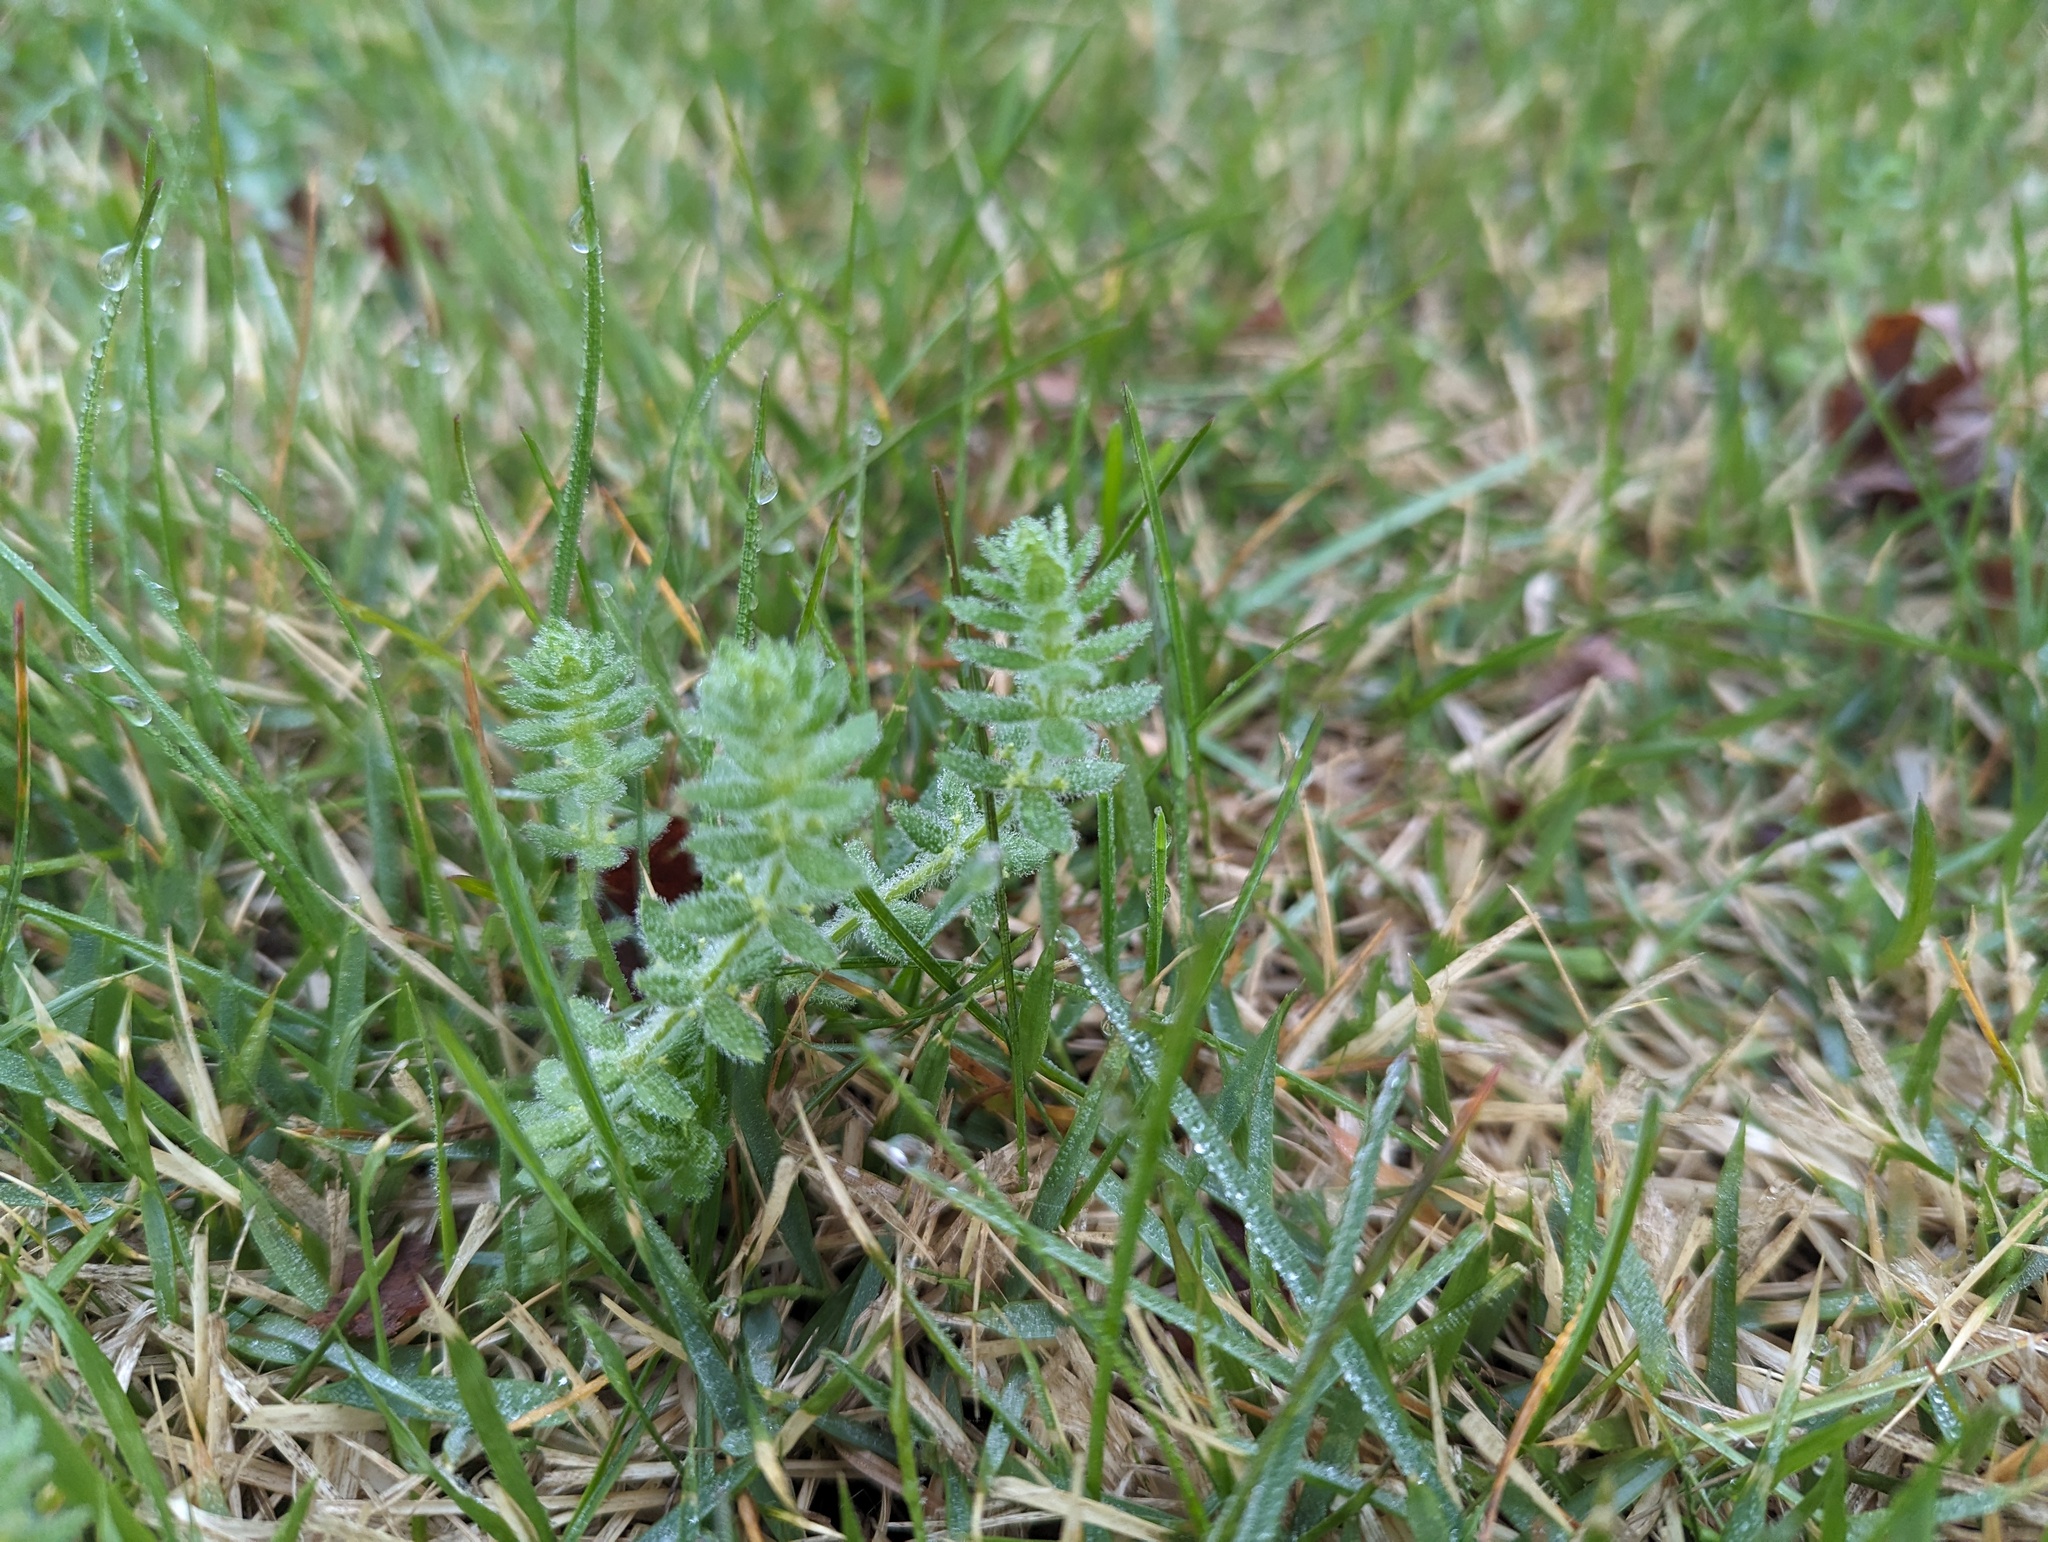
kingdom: Plantae
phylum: Tracheophyta
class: Magnoliopsida
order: Gentianales
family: Rubiaceae
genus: Cruciata
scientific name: Cruciata pedemontana
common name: Piedmont bedstraw
